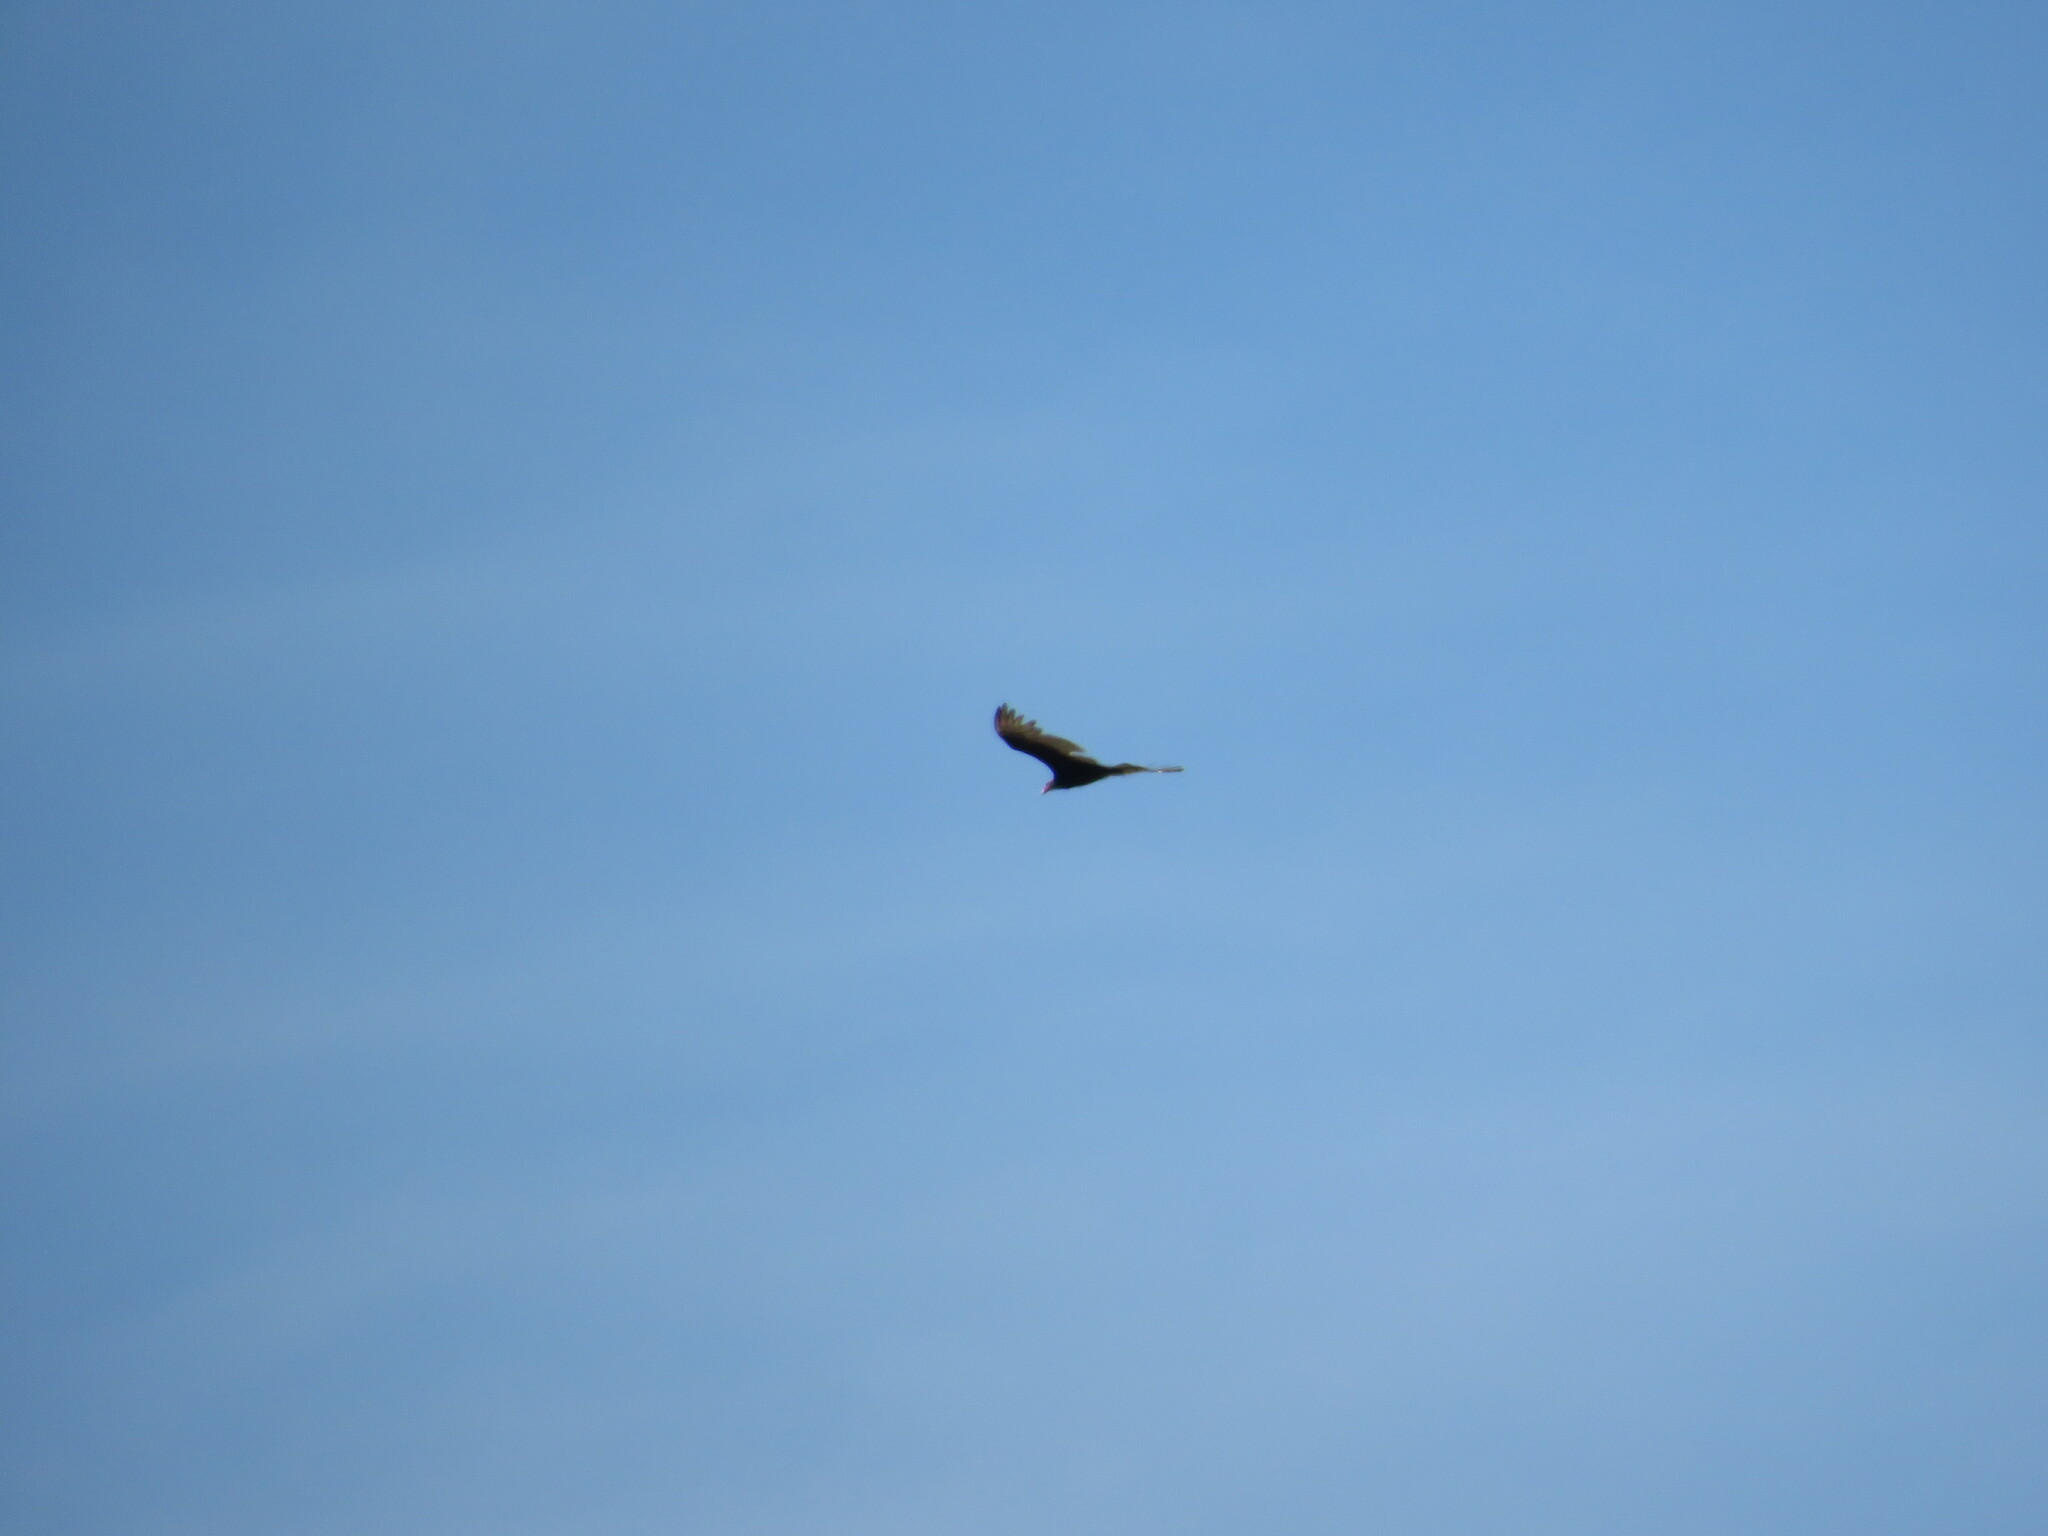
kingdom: Animalia
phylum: Chordata
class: Aves
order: Accipitriformes
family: Cathartidae
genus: Cathartes
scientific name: Cathartes aura
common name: Turkey vulture
